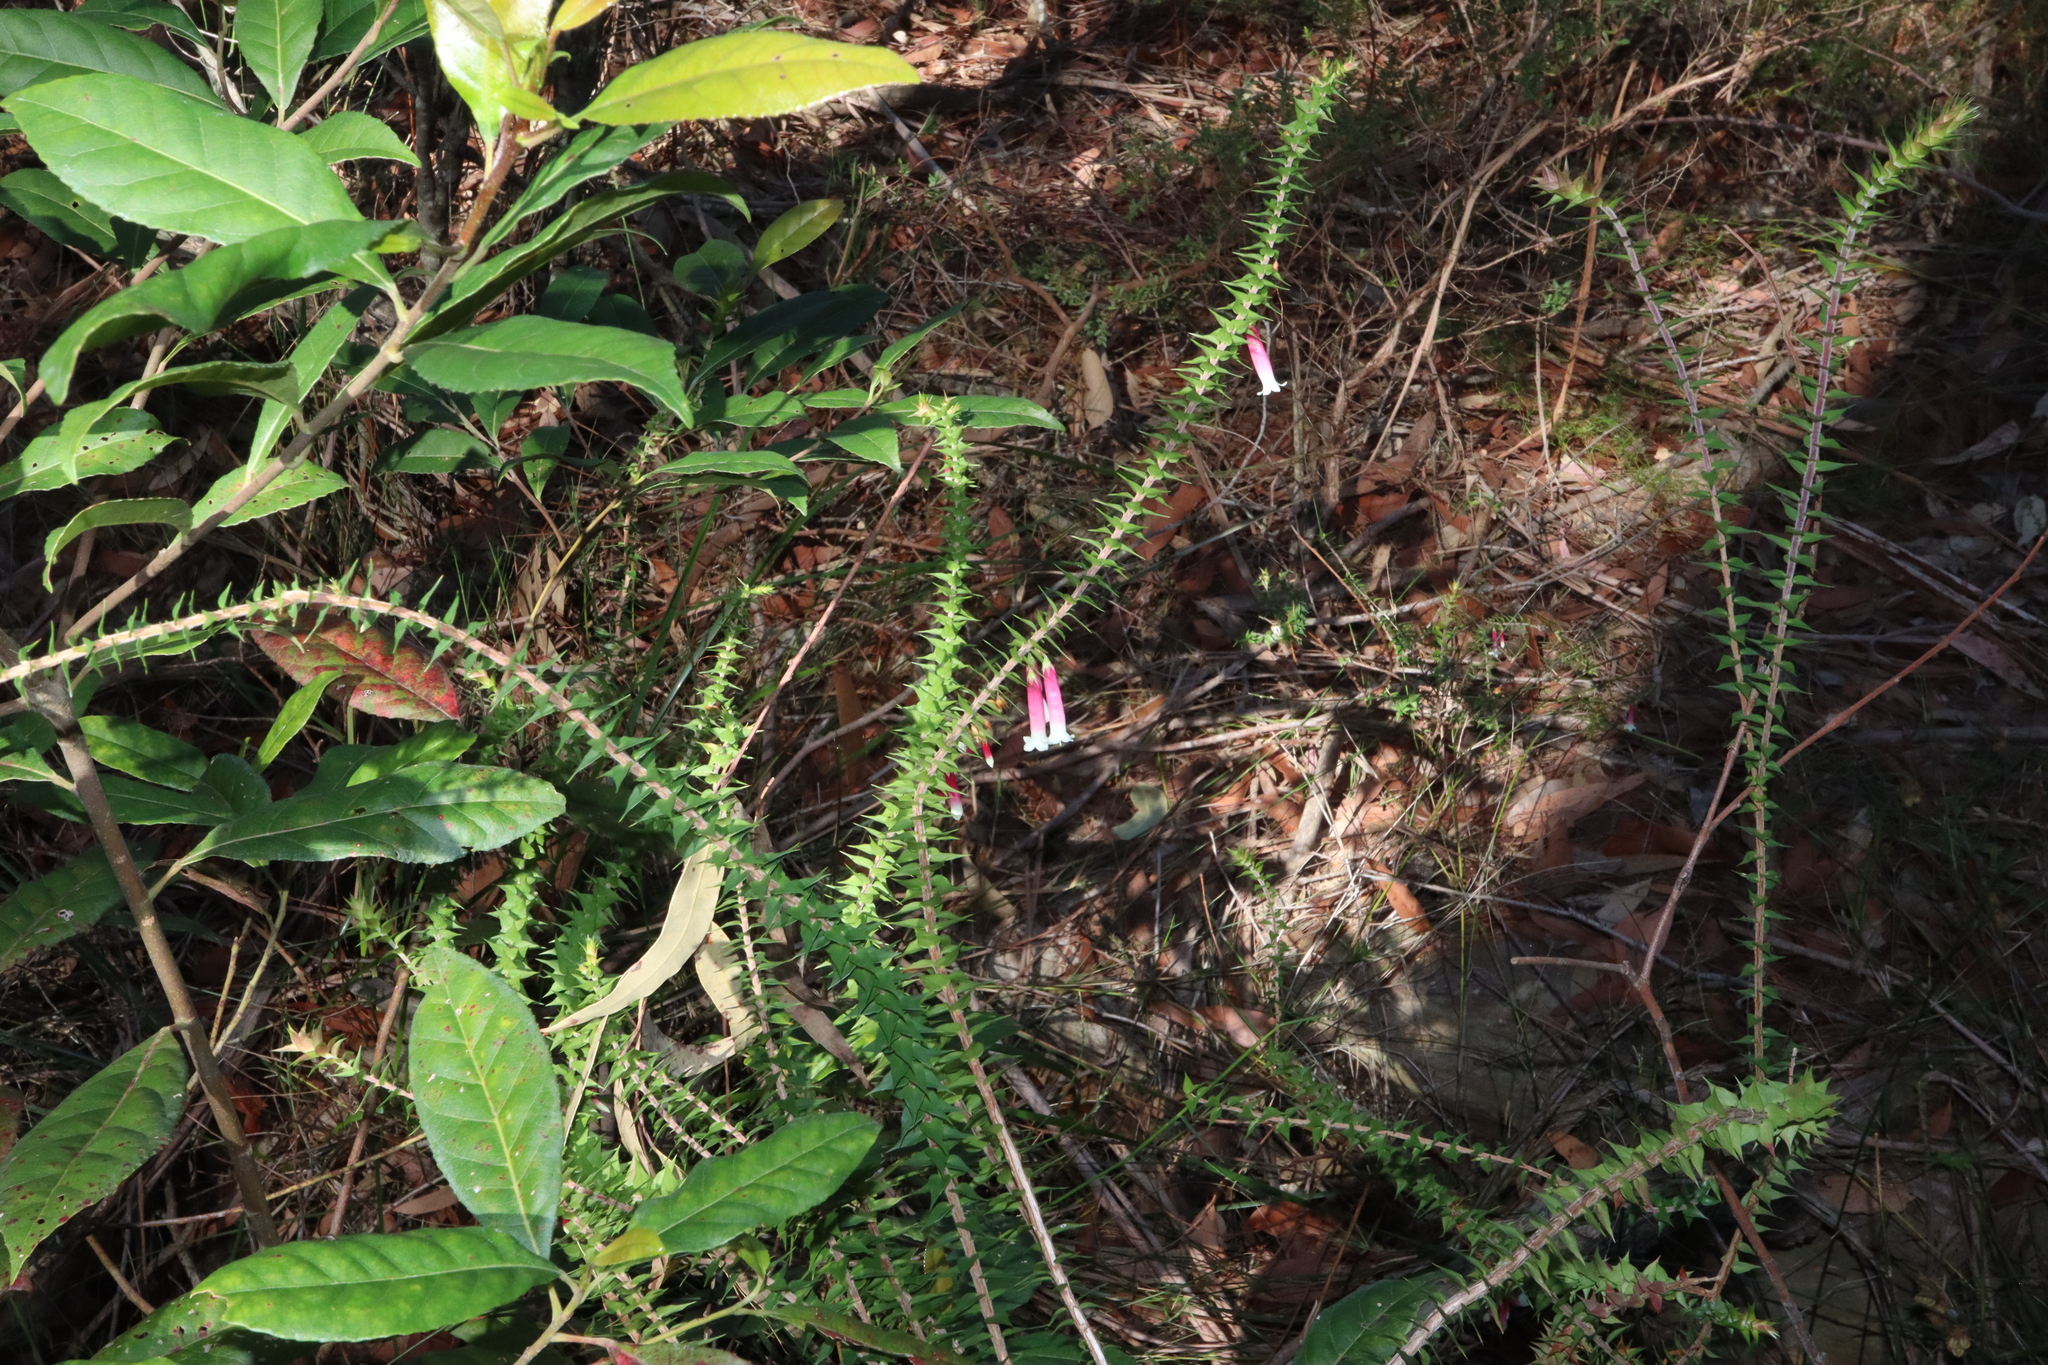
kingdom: Plantae
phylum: Tracheophyta
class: Magnoliopsida
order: Ericales
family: Ericaceae
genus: Epacris
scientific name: Epacris longiflora
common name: Fuchsia-heath
